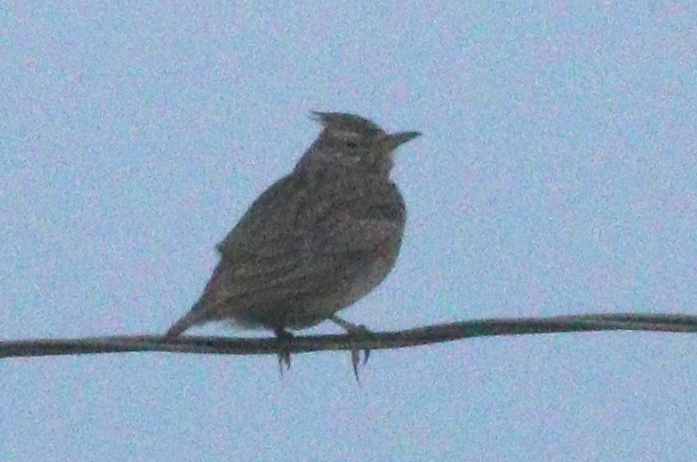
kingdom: Animalia
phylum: Chordata
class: Aves
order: Passeriformes
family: Alaudidae
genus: Galerida
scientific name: Galerida cristata
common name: Crested lark
